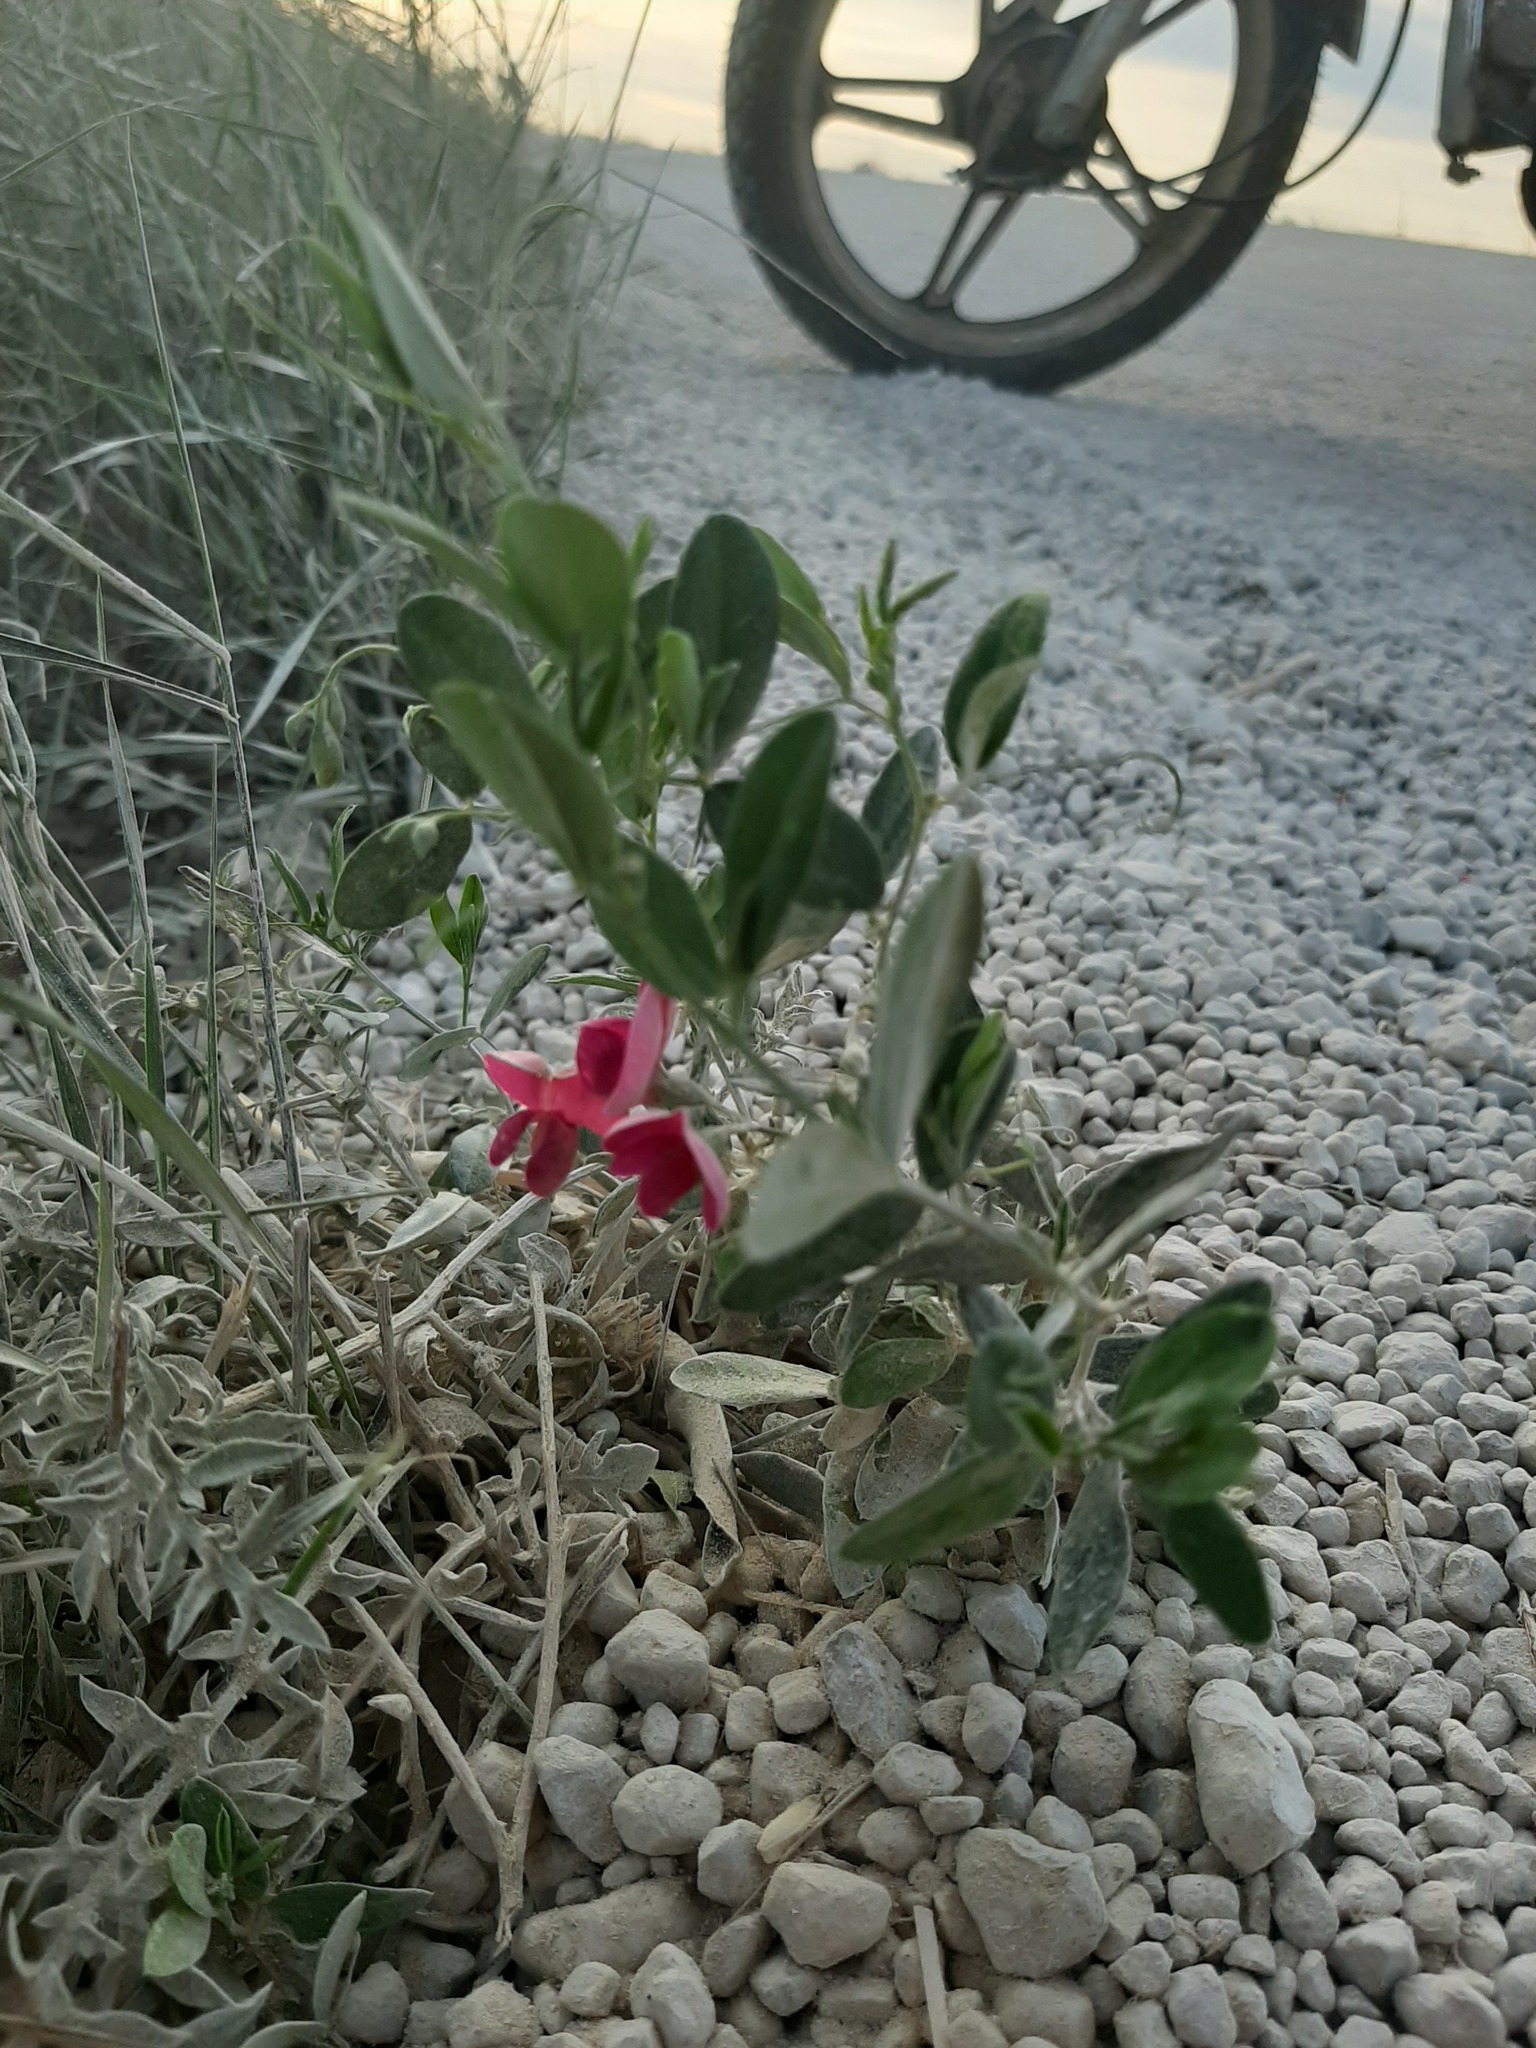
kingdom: Plantae
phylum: Tracheophyta
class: Magnoliopsida
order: Fabales
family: Fabaceae
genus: Lathyrus
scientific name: Lathyrus tuberosus
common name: Tuberous pea
